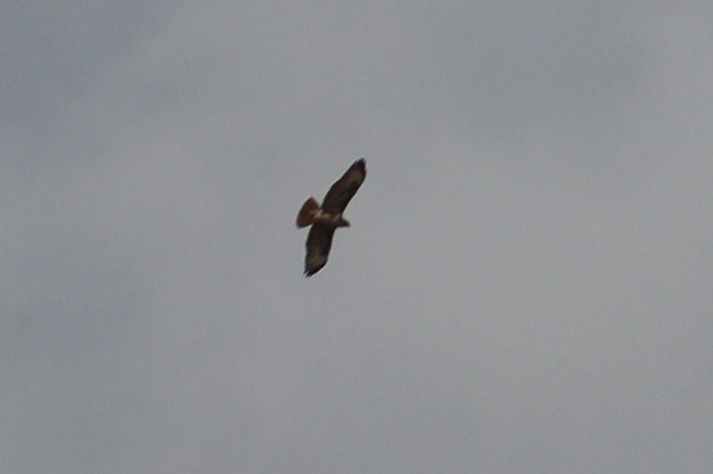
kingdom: Animalia
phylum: Chordata
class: Aves
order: Accipitriformes
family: Accipitridae
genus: Buteo
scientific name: Buteo buteo
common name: Common buzzard
